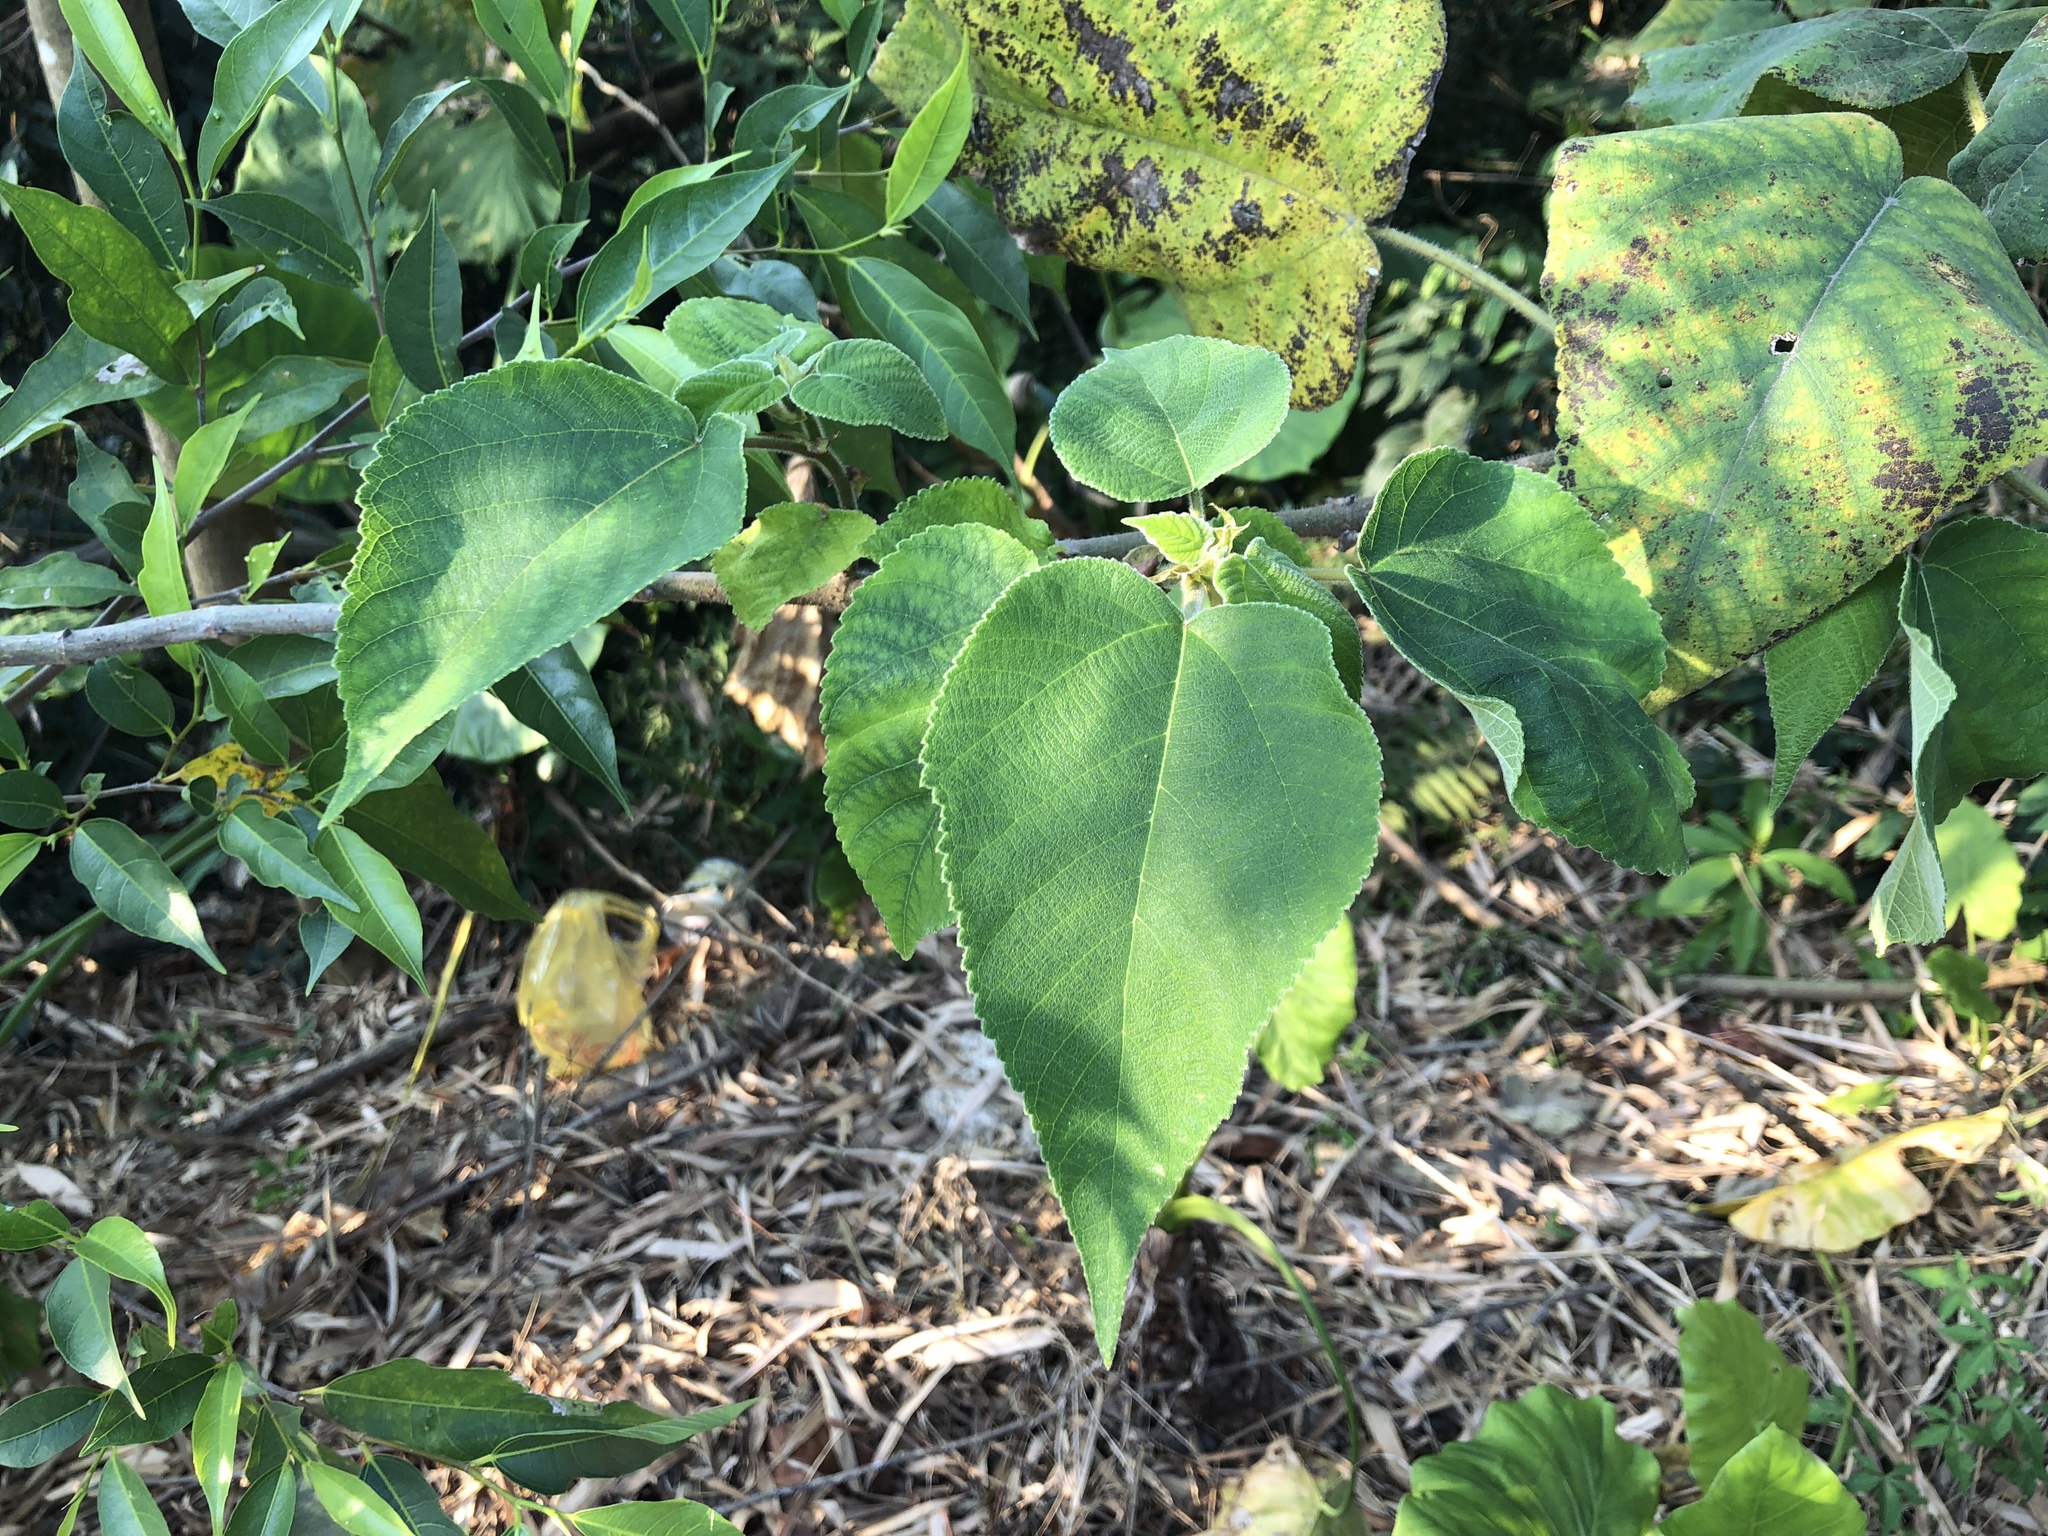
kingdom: Plantae
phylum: Tracheophyta
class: Magnoliopsida
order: Rosales
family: Moraceae
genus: Broussonetia
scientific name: Broussonetia papyrifera
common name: Paper mulberry
